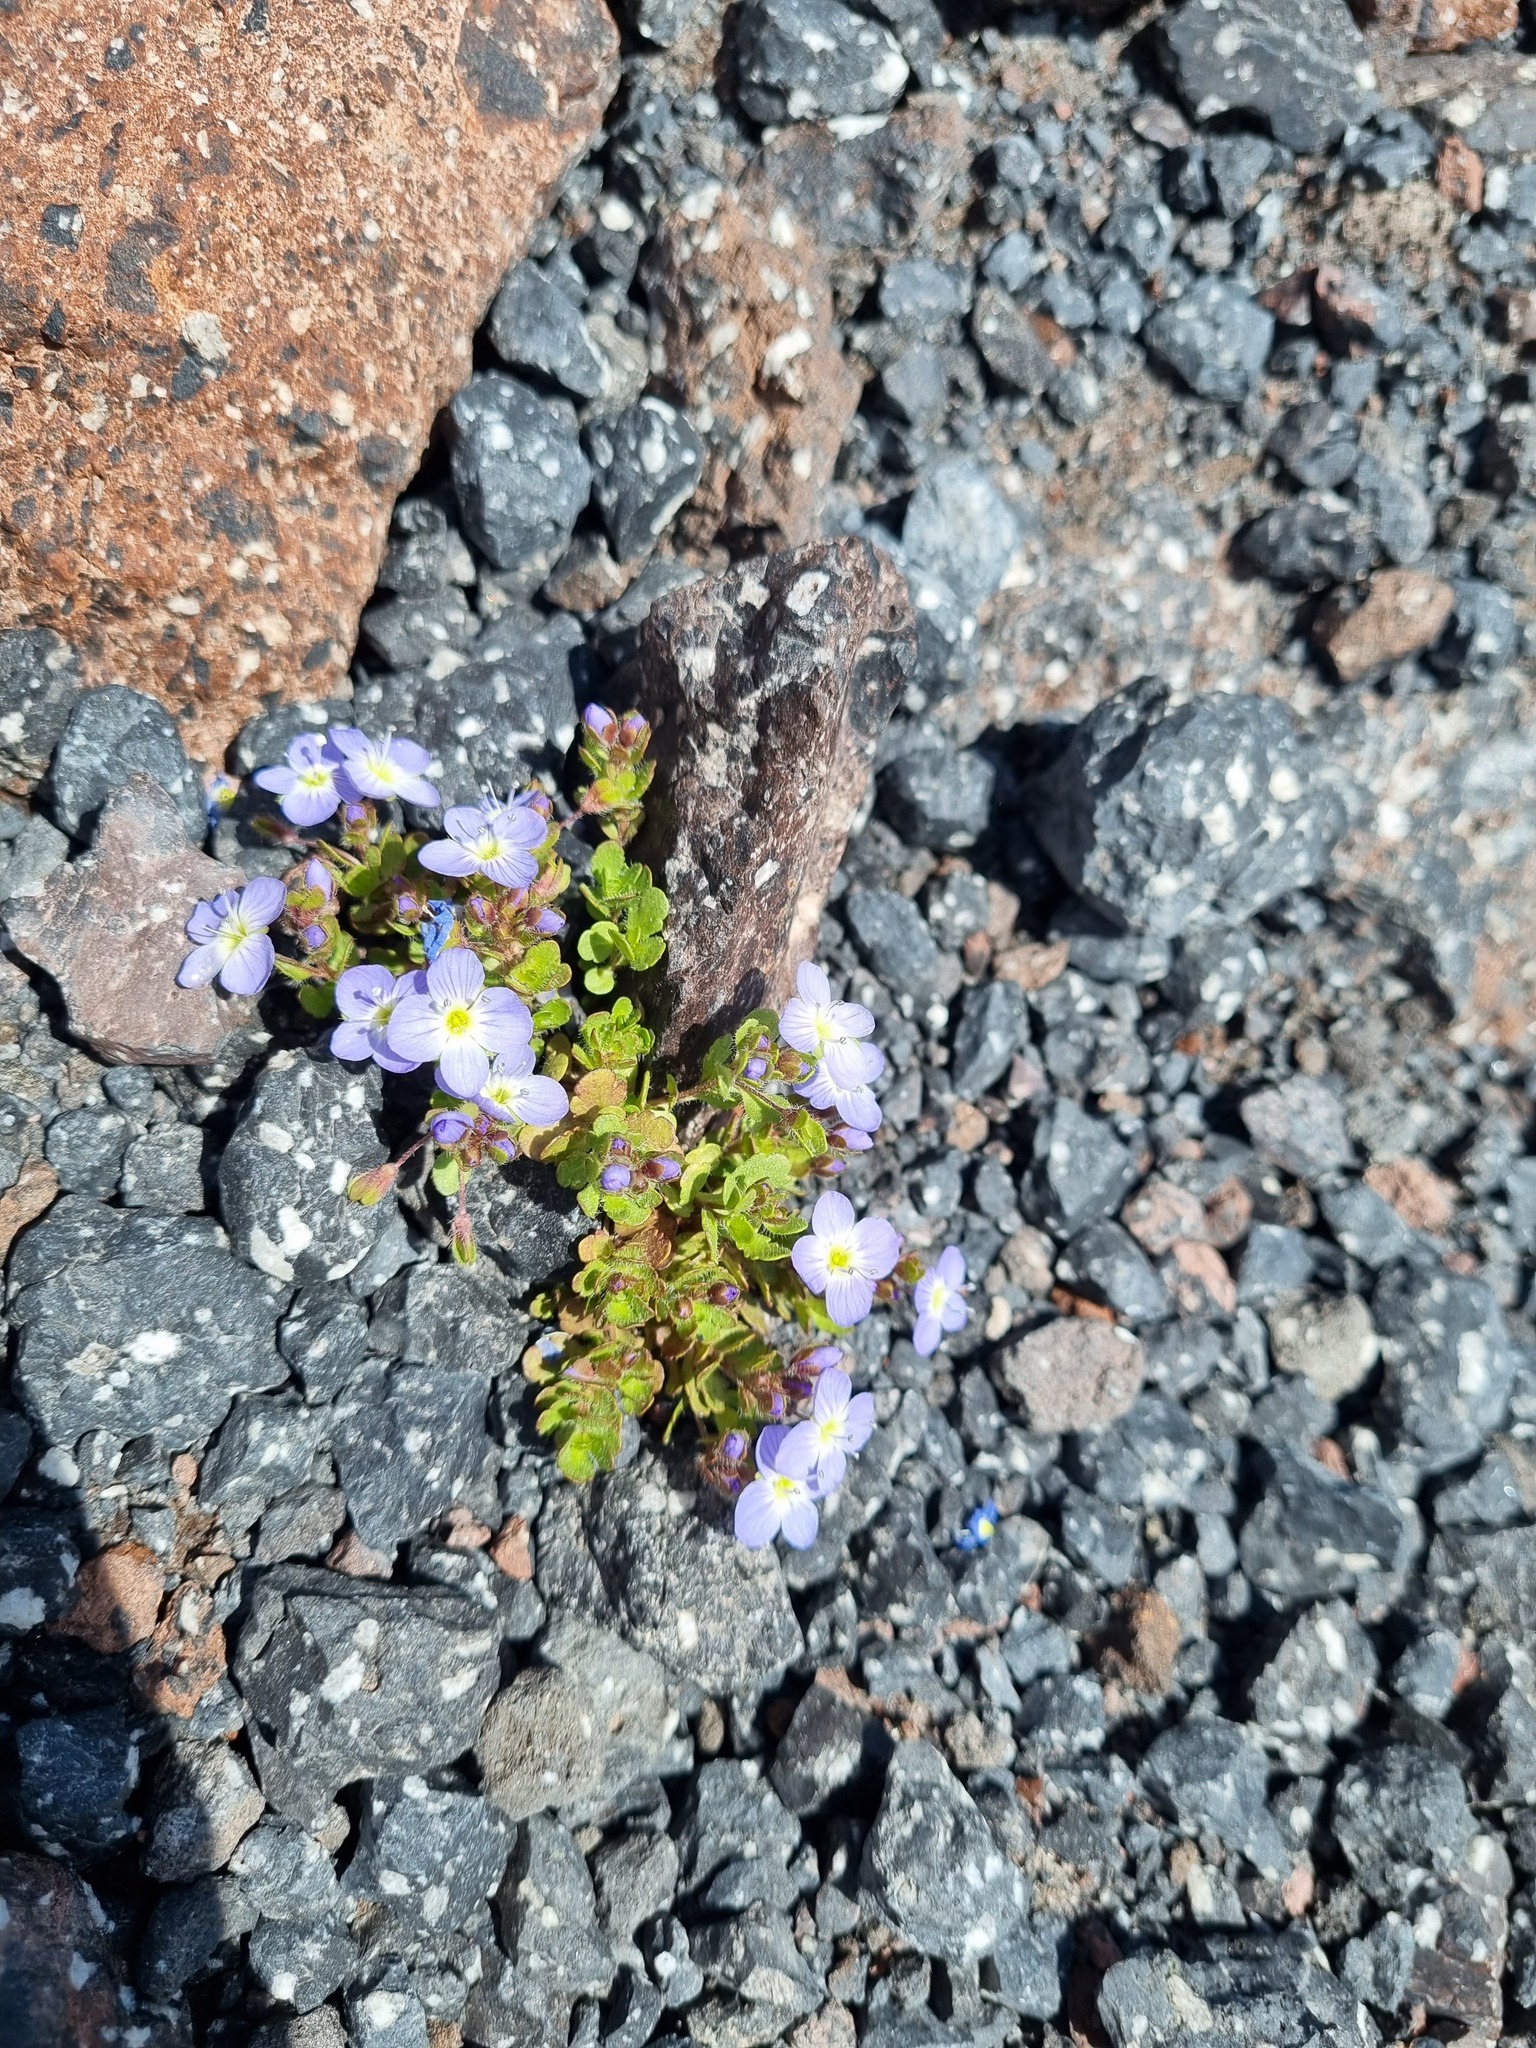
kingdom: Plantae
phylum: Tracheophyta
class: Magnoliopsida
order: Lamiales
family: Plantaginaceae
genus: Veronica
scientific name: Veronica
